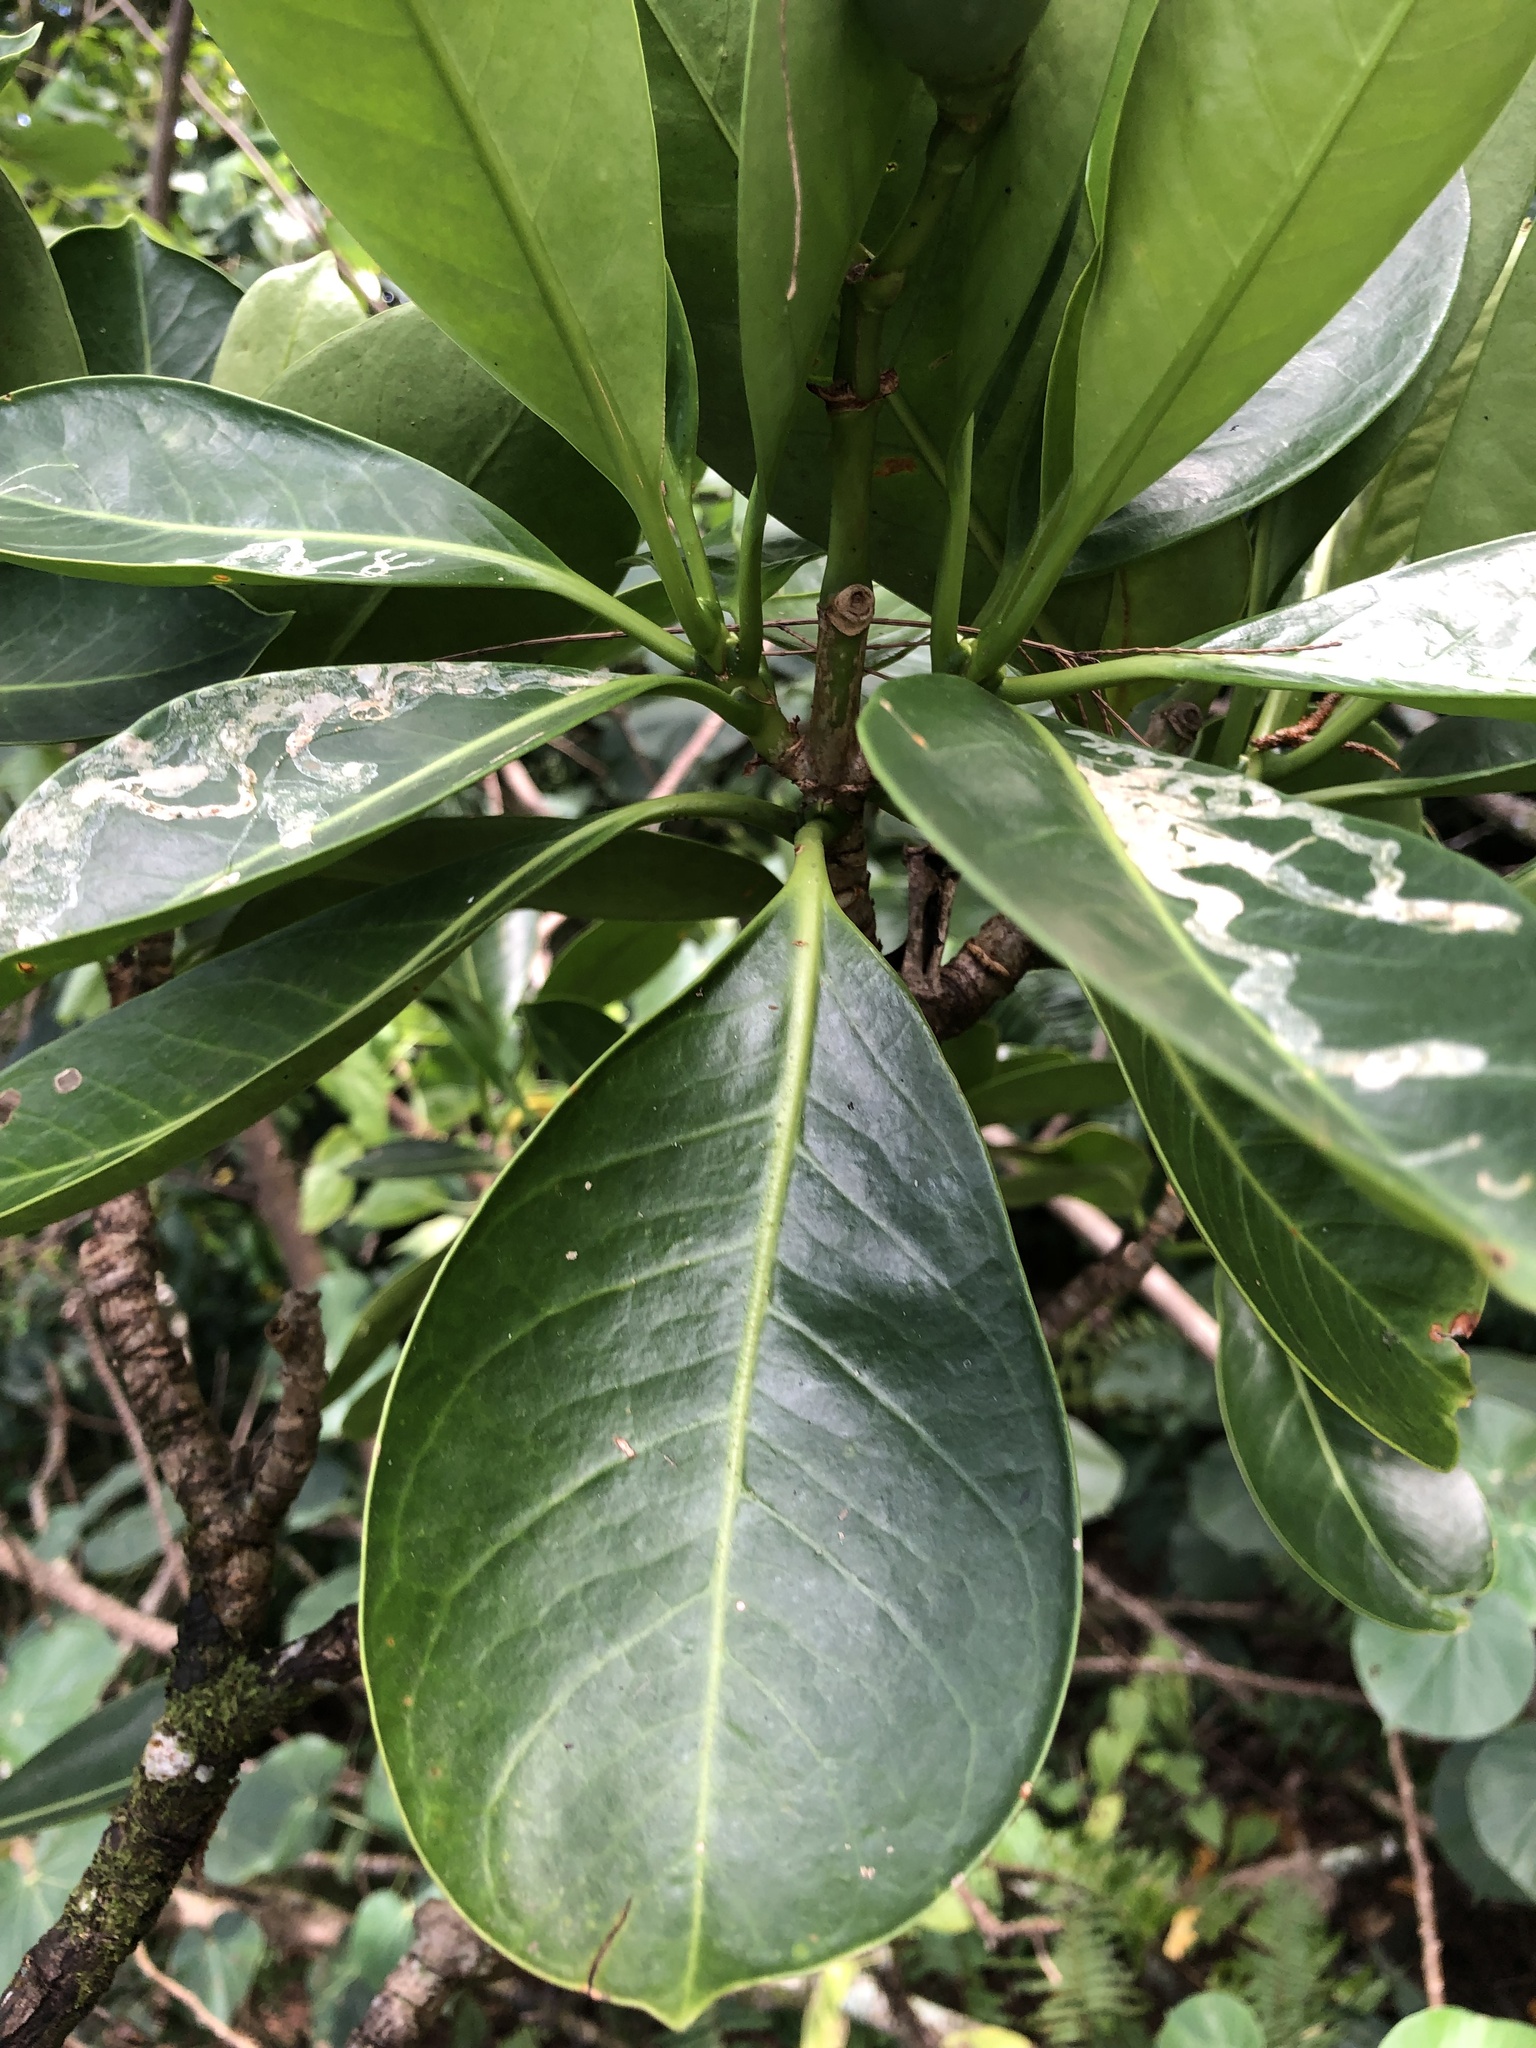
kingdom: Plantae
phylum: Tracheophyta
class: Magnoliopsida
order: Gentianales
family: Gentianaceae
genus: Fagraea
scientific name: Fagraea berteroana
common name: Cape jitta
